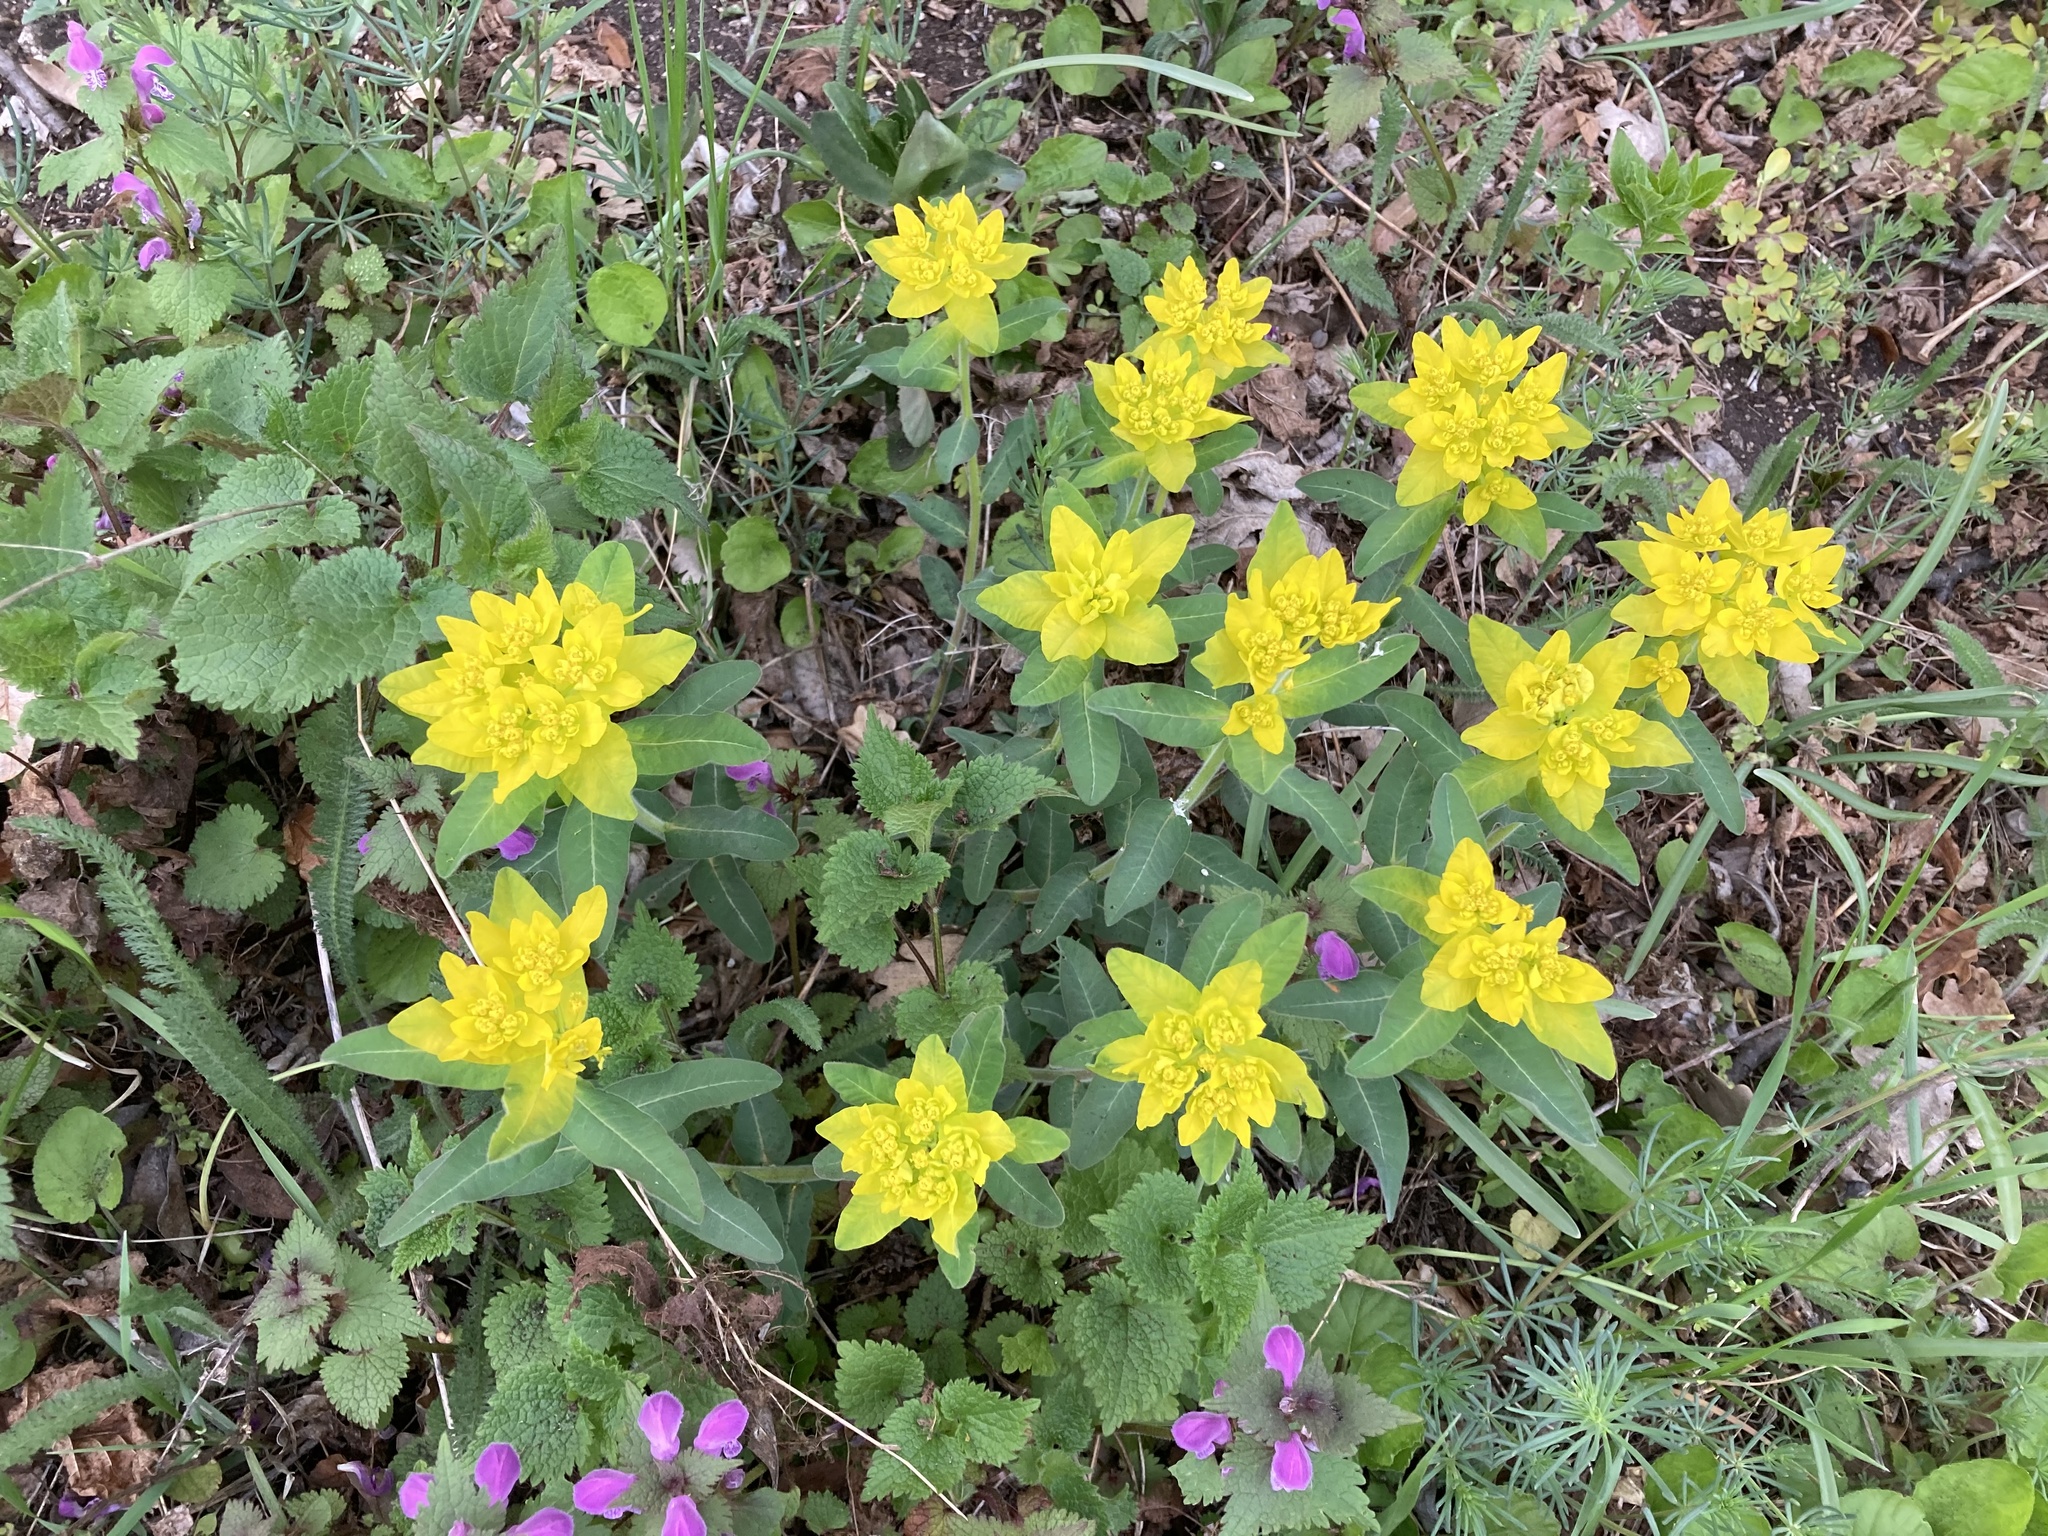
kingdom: Plantae
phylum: Tracheophyta
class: Magnoliopsida
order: Malpighiales
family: Euphorbiaceae
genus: Euphorbia
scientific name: Euphorbia epithymoides
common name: Cushion spurge
